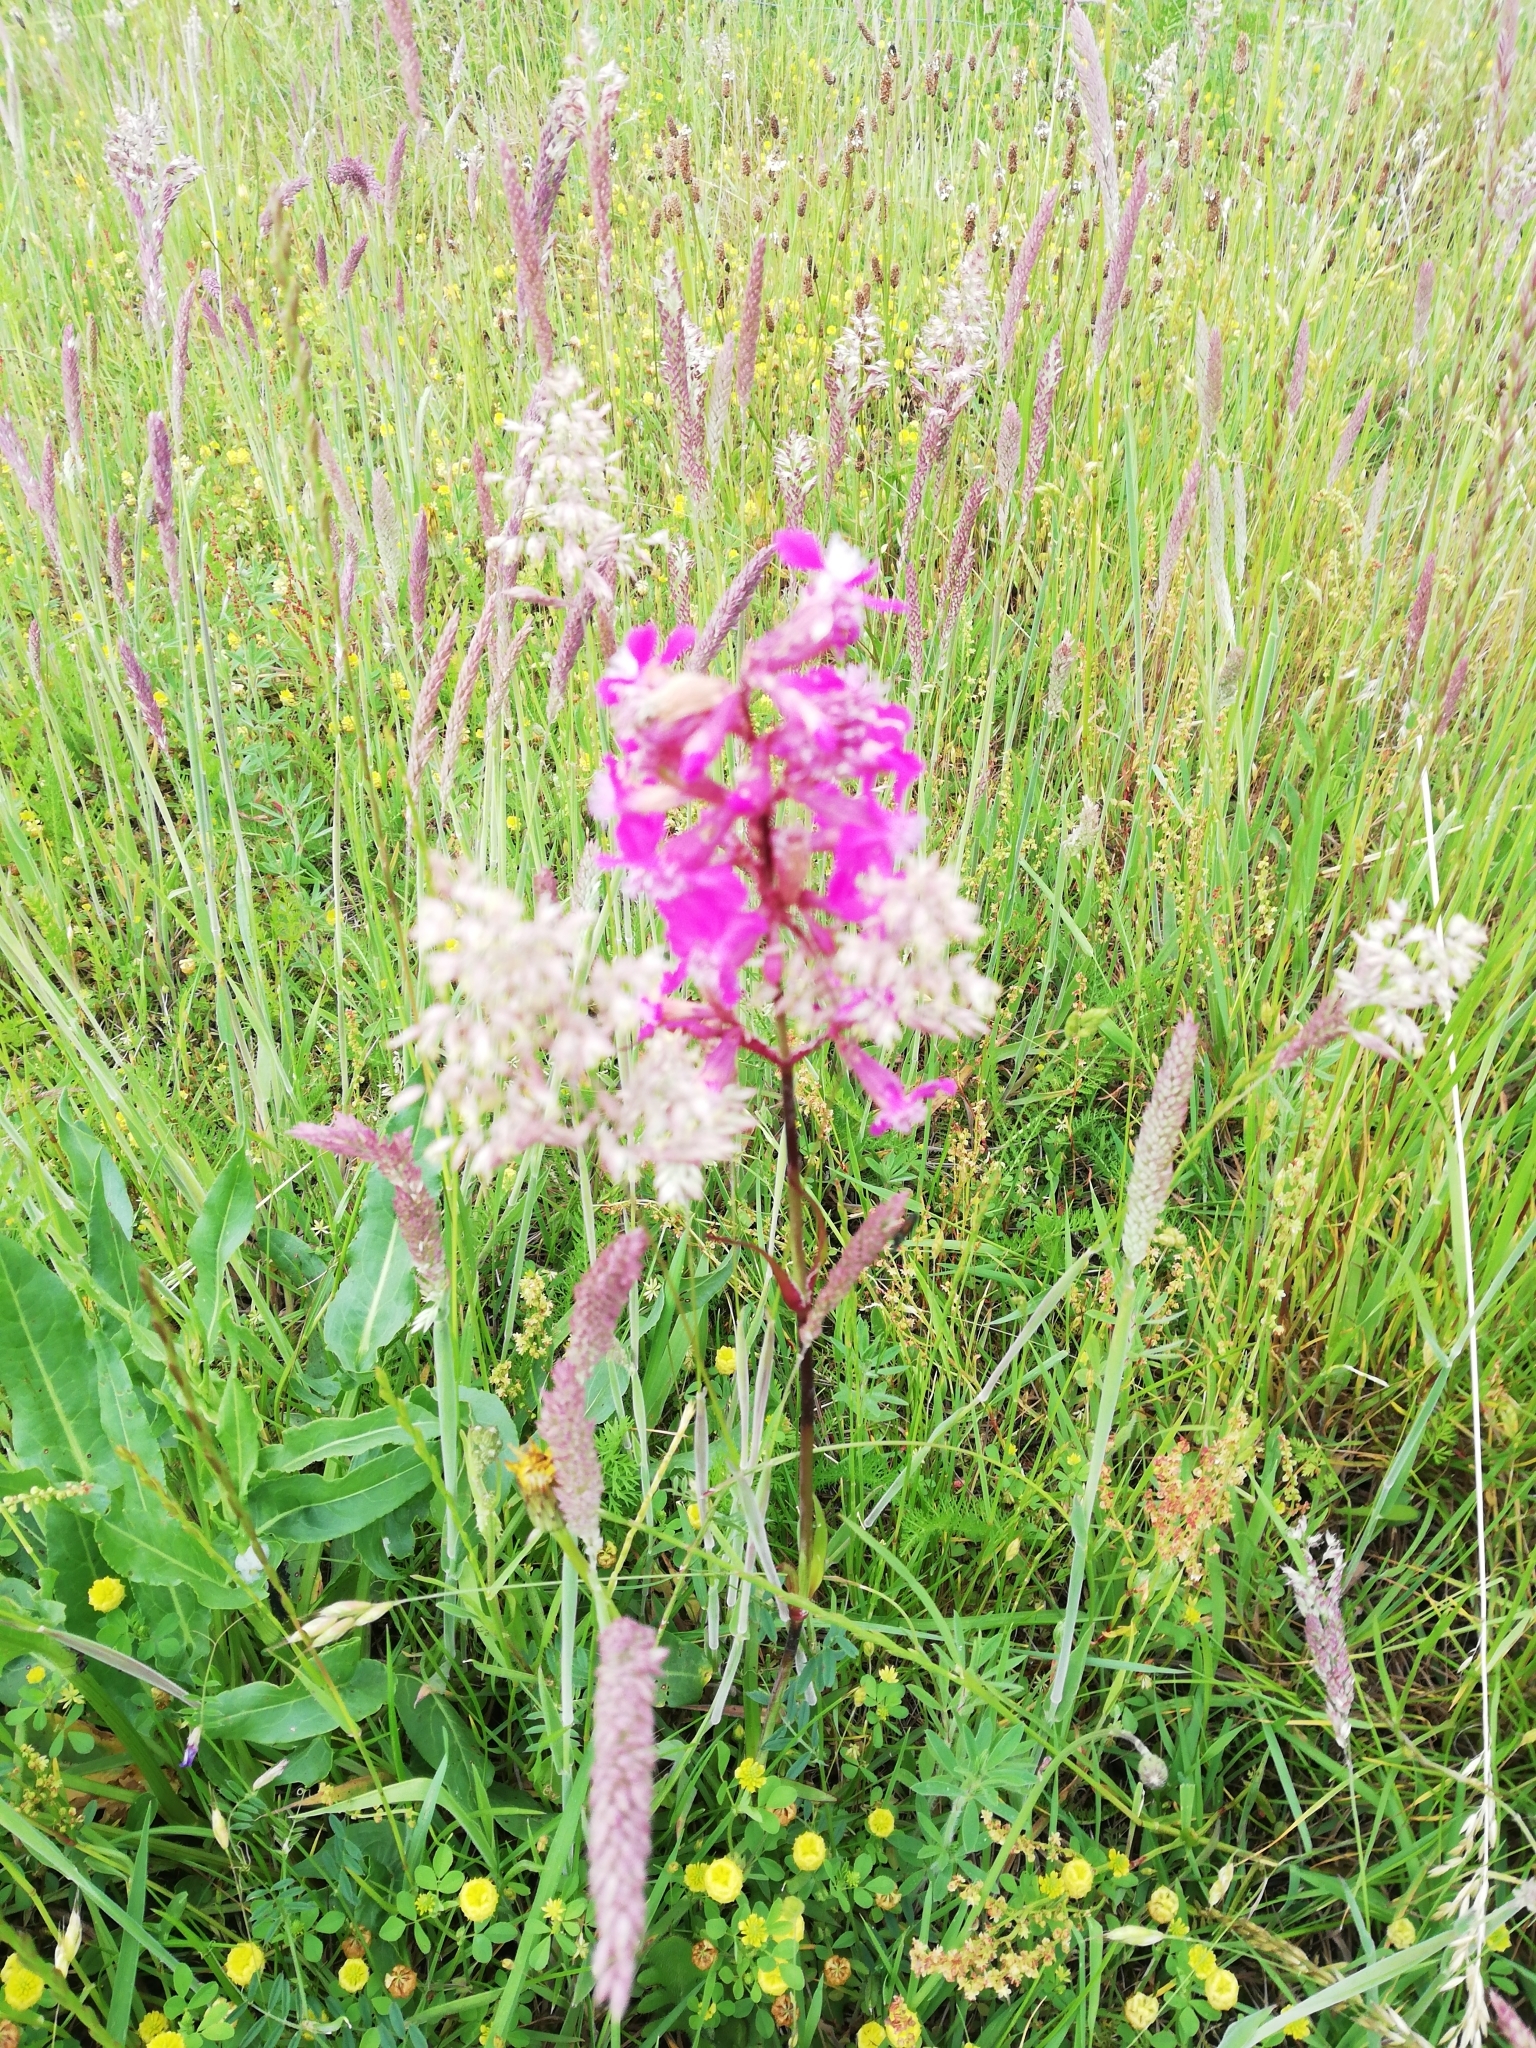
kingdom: Plantae
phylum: Tracheophyta
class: Magnoliopsida
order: Caryophyllales
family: Caryophyllaceae
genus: Viscaria
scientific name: Viscaria vulgaris
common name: Clammy campion
